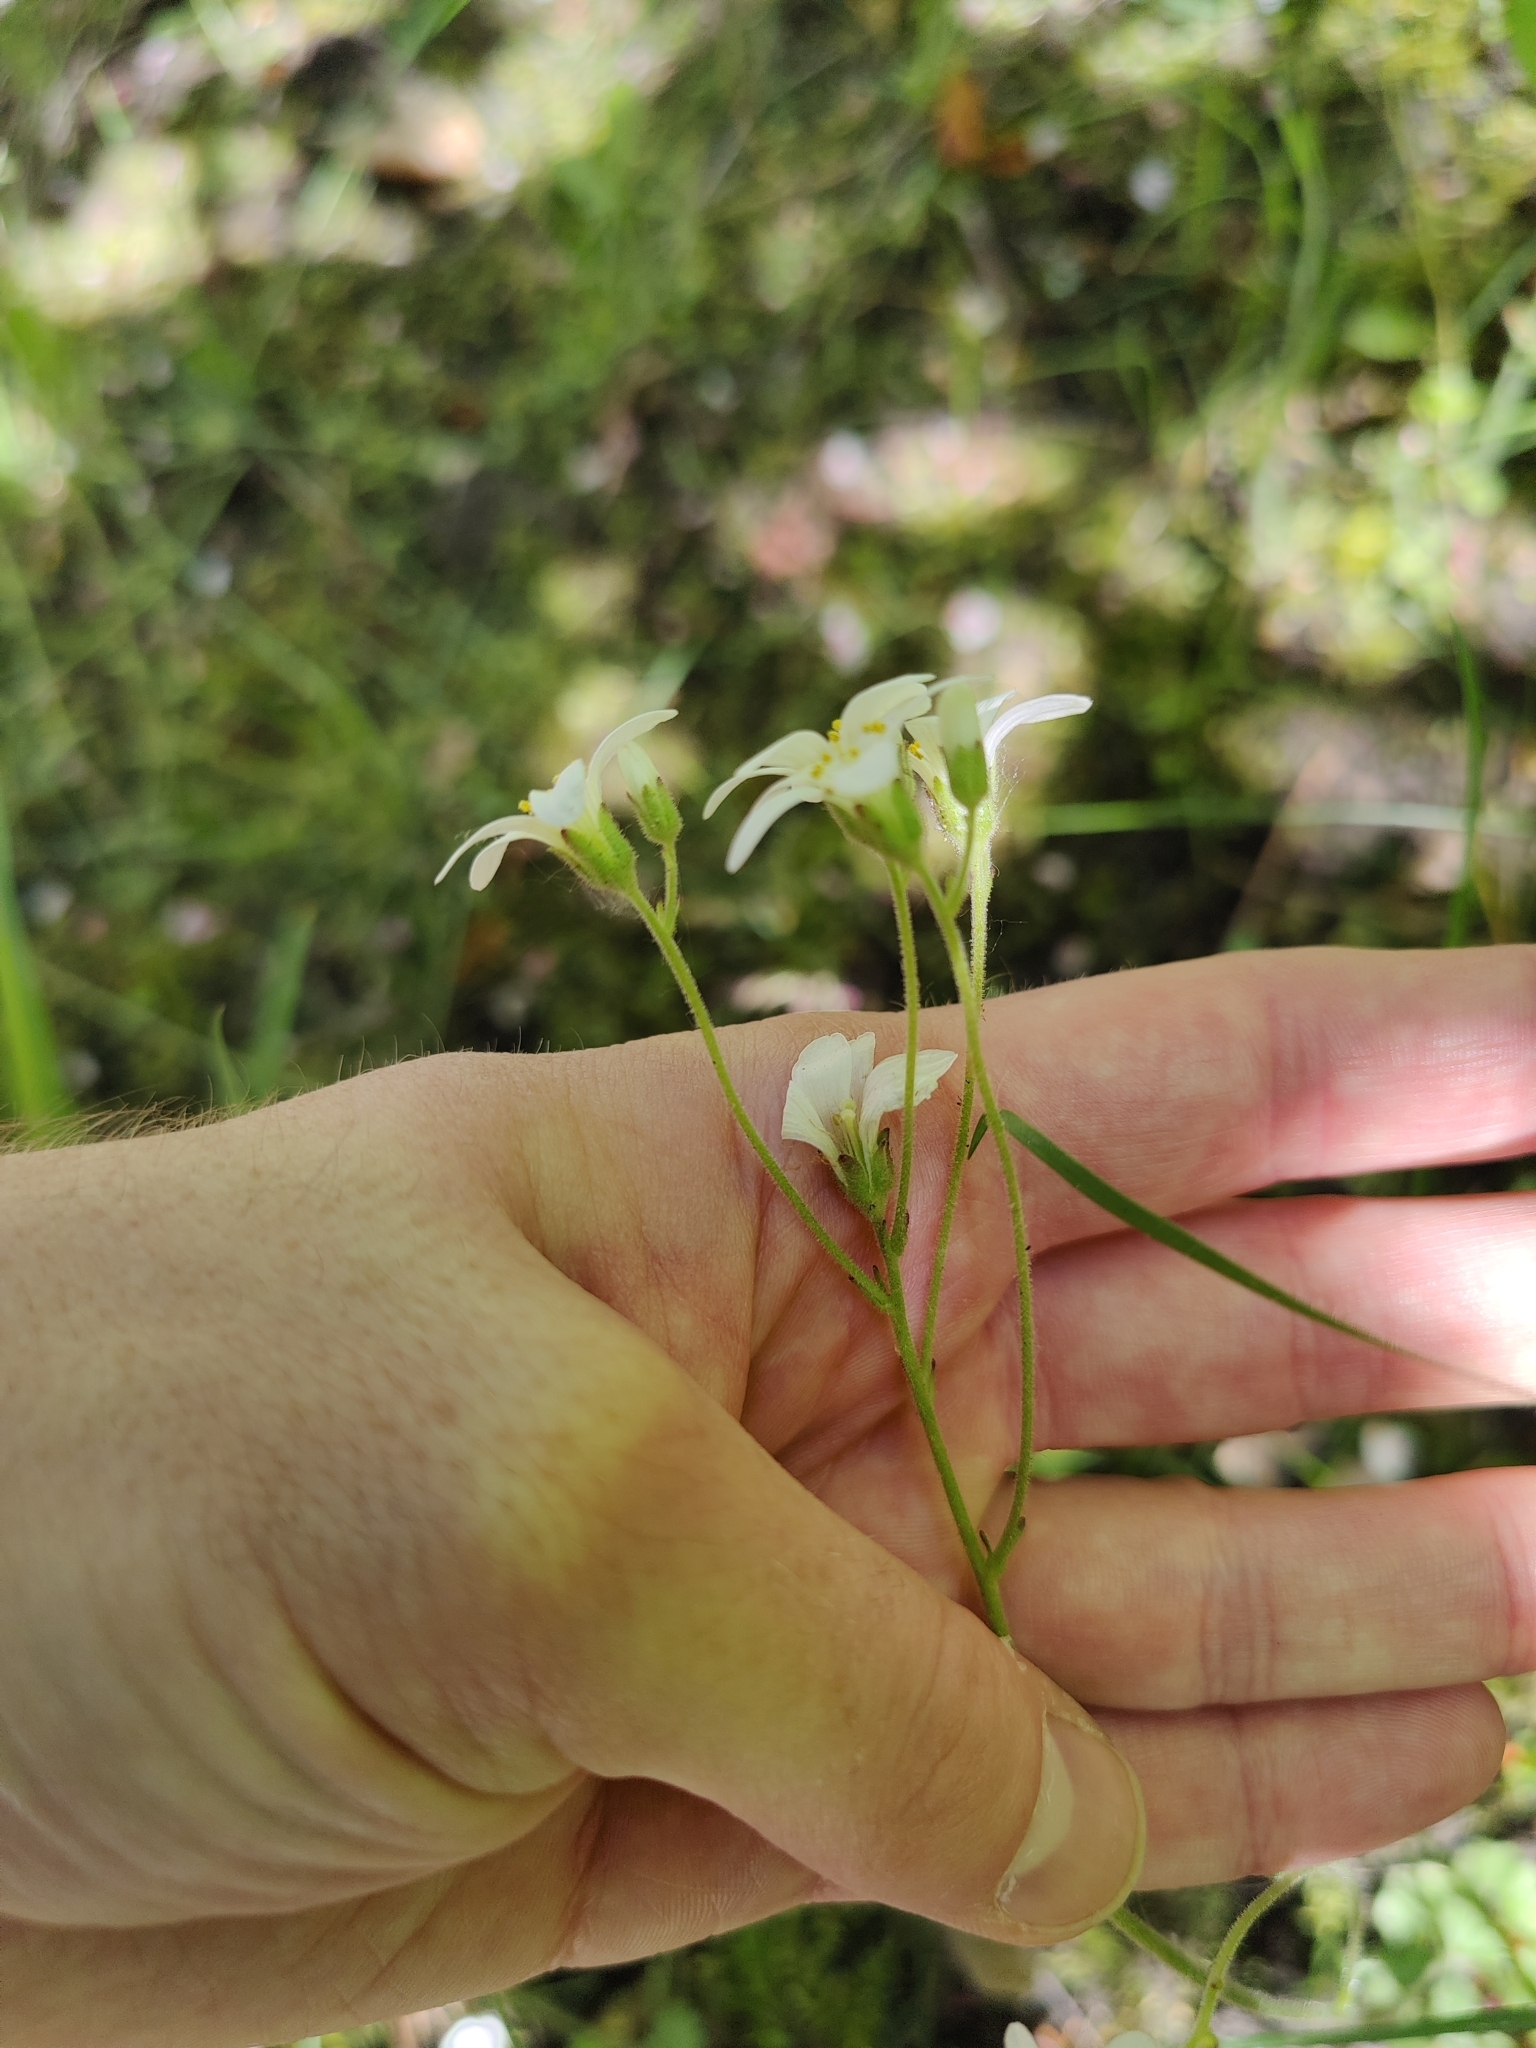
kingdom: Plantae
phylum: Tracheophyta
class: Magnoliopsida
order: Saxifragales
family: Saxifragaceae
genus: Saxifraga
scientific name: Saxifraga granulata
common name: Meadow saxifrage
